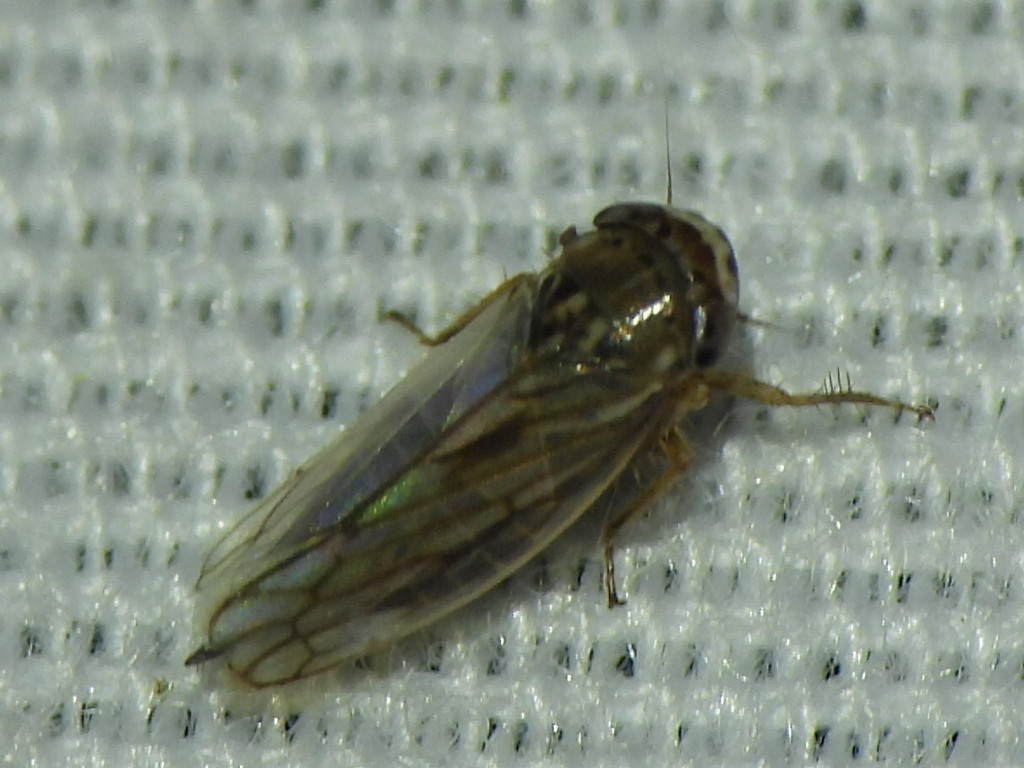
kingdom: Animalia
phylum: Arthropoda
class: Insecta
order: Hemiptera
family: Cicadellidae
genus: Exitianus
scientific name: Exitianus exitiosus
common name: Gray lawn leafhopper
